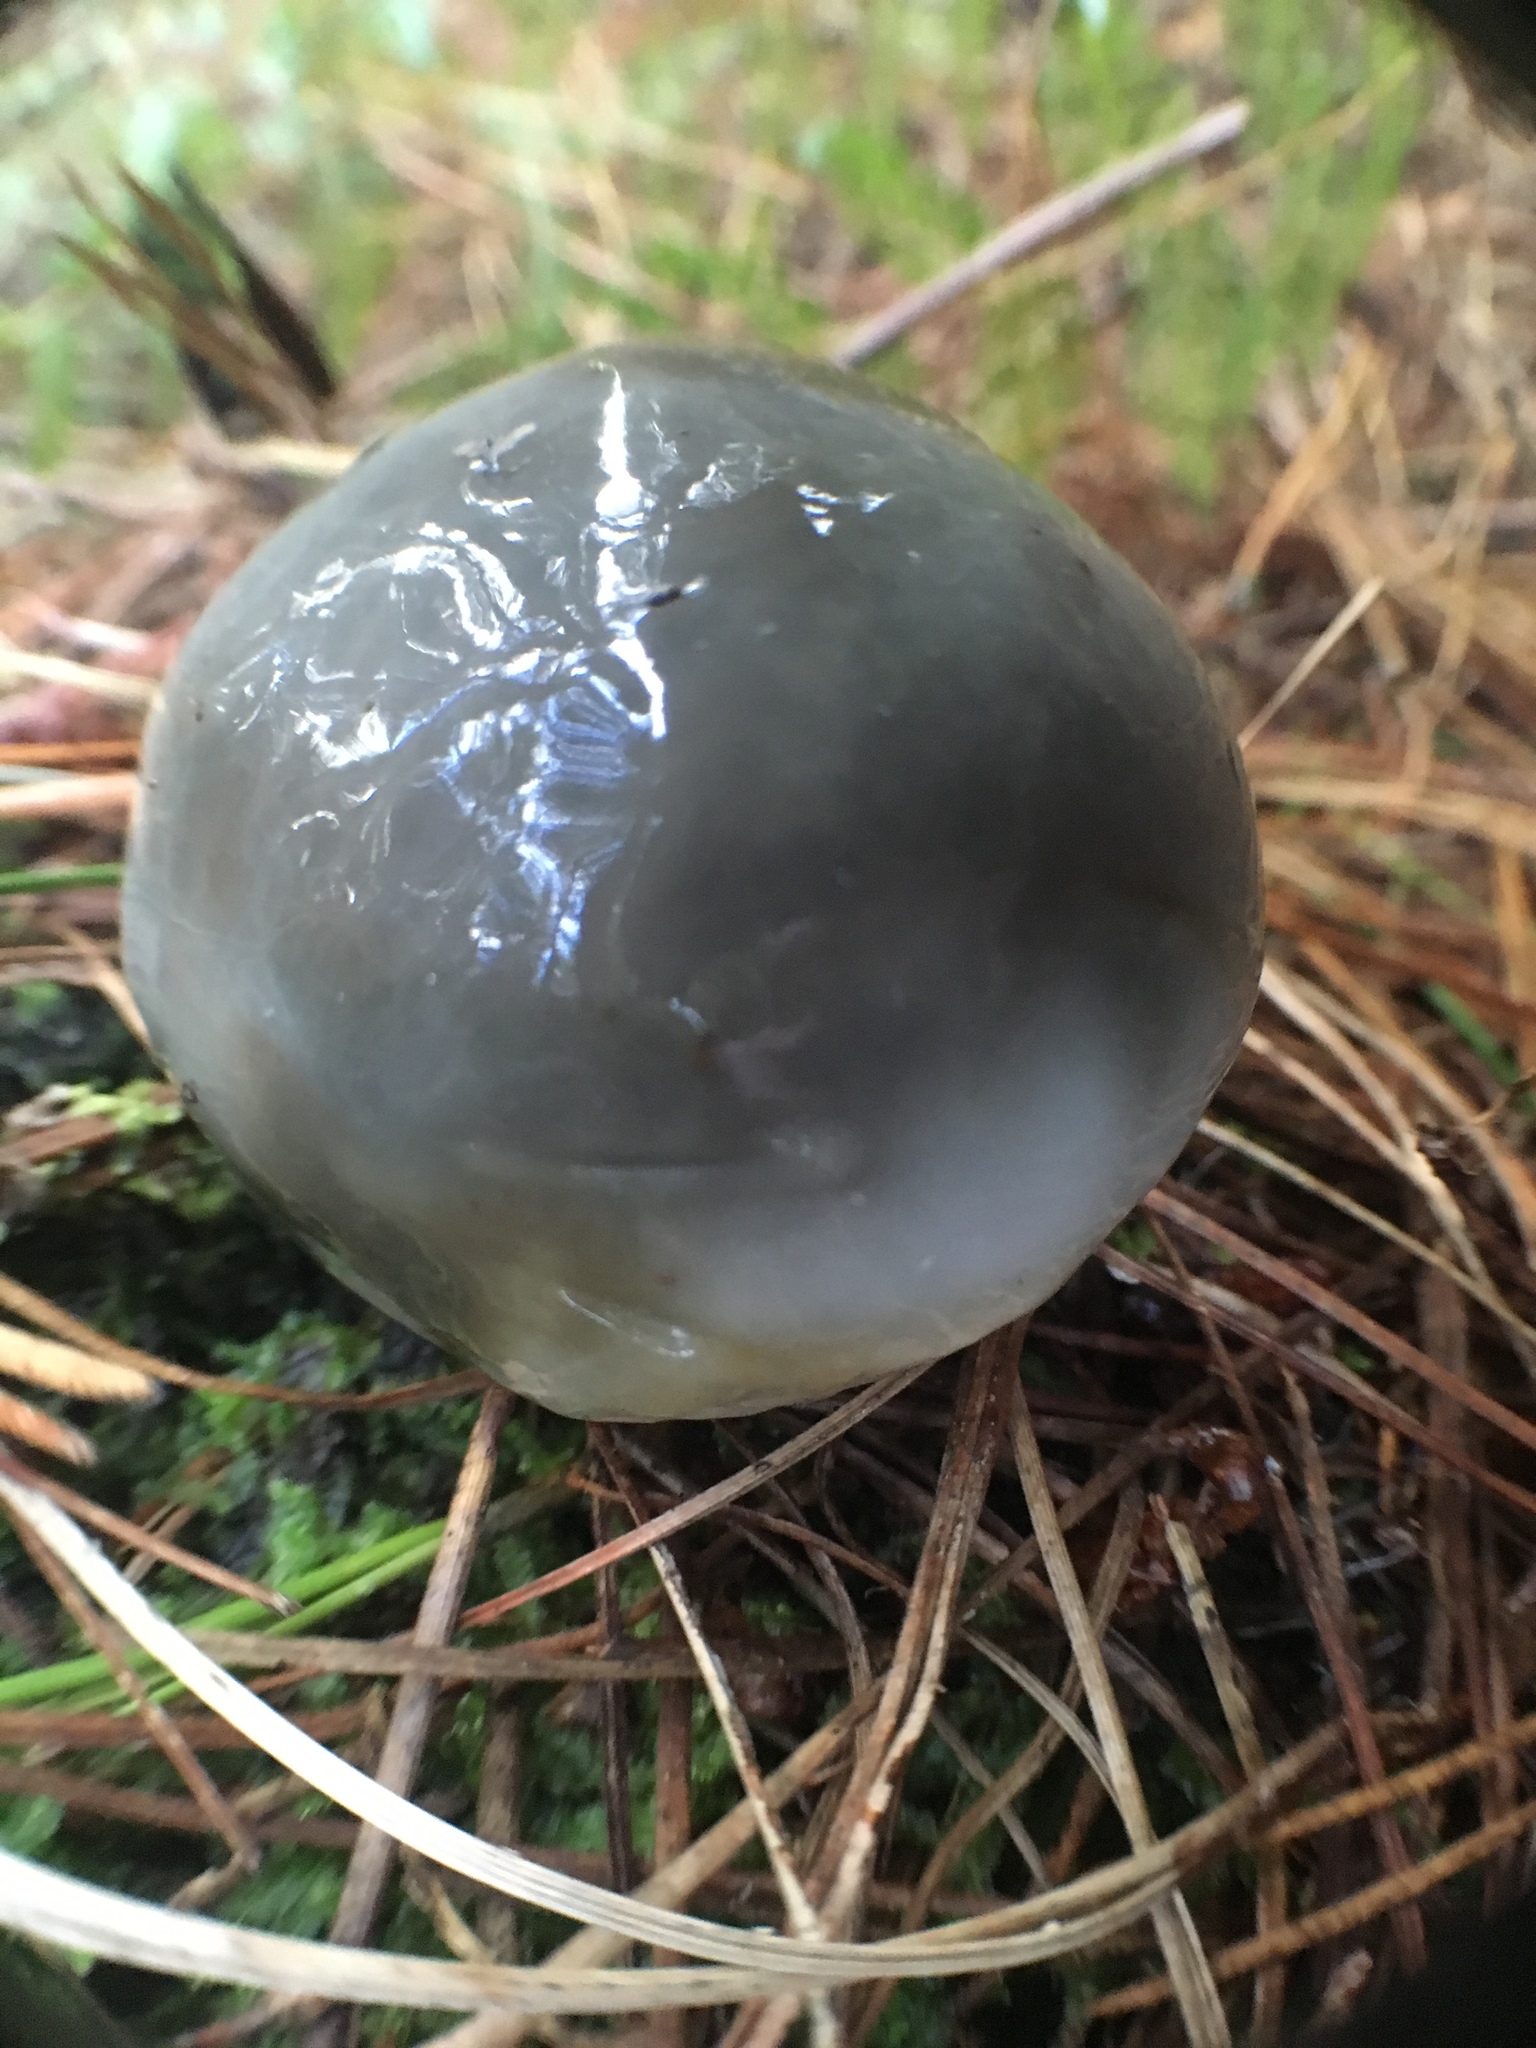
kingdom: Fungi
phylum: Basidiomycota
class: Agaricomycetes
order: Boletales
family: Suillaceae
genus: Suillus
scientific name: Suillus pungens
